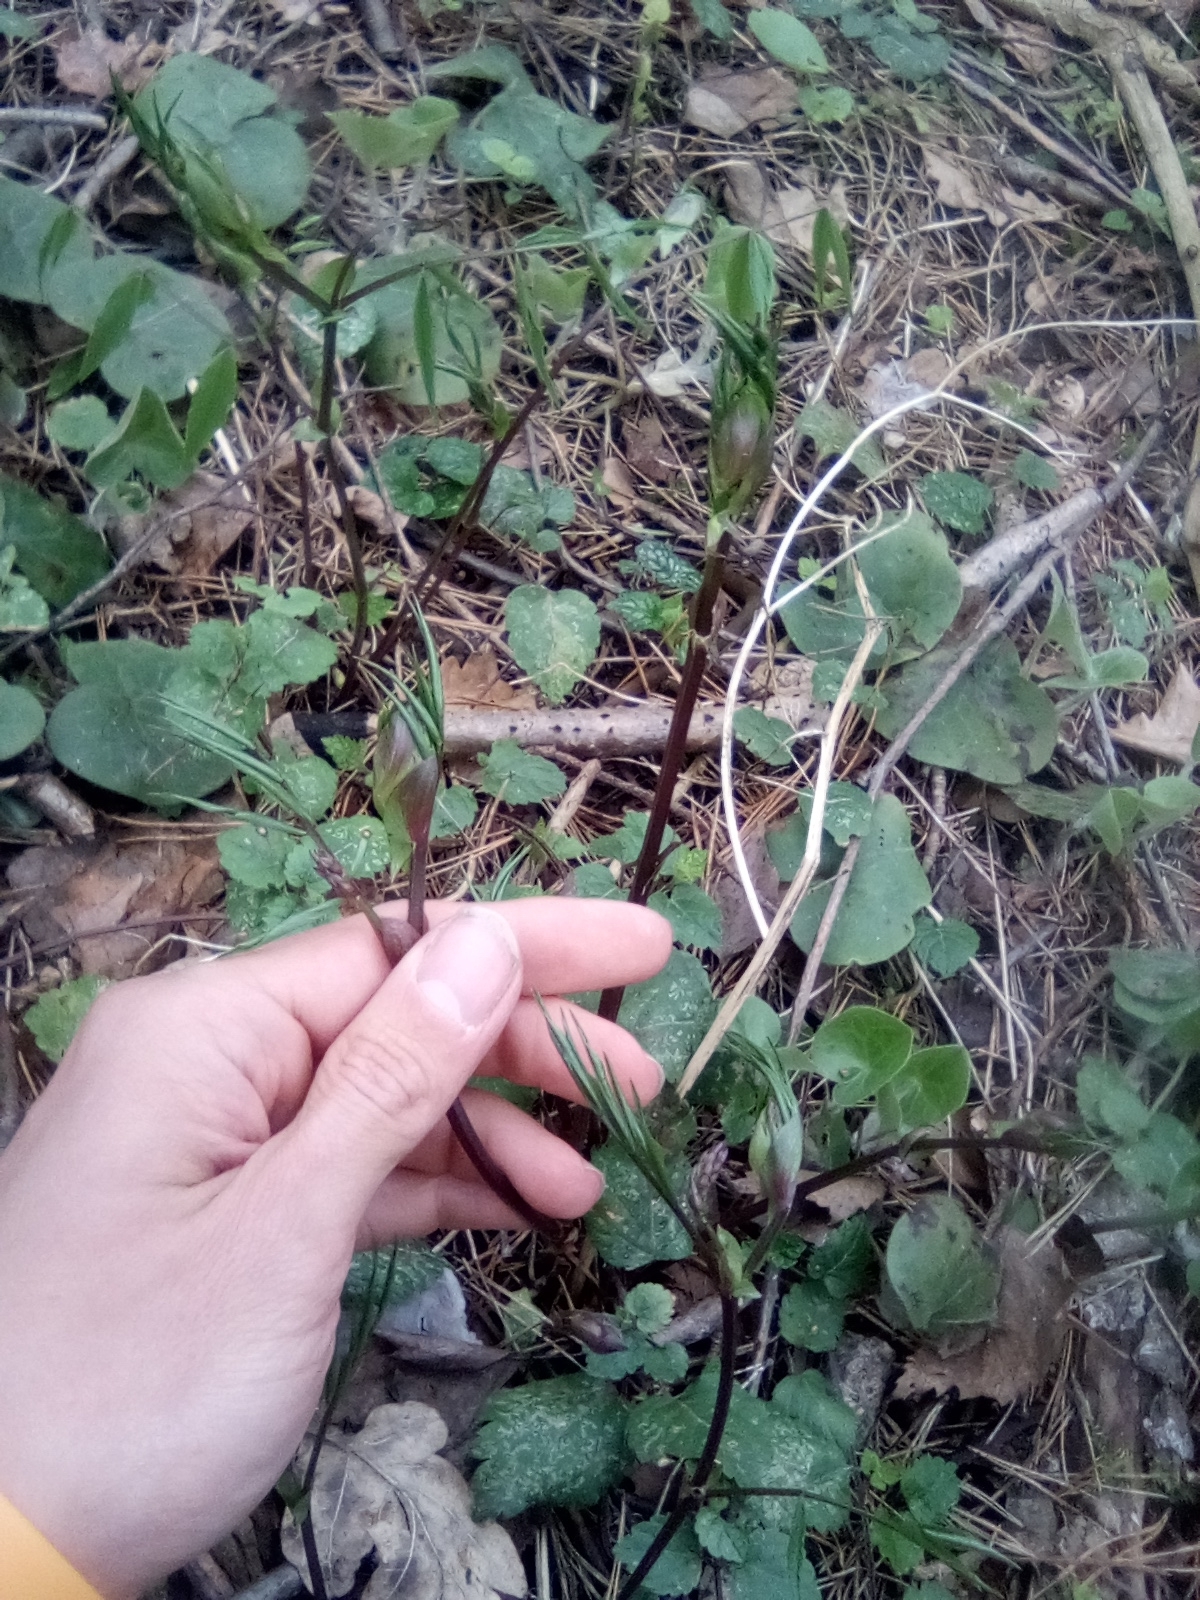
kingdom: Plantae
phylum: Tracheophyta
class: Magnoliopsida
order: Fabales
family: Fabaceae
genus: Lathyrus
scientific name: Lathyrus vernus
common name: Spring pea
